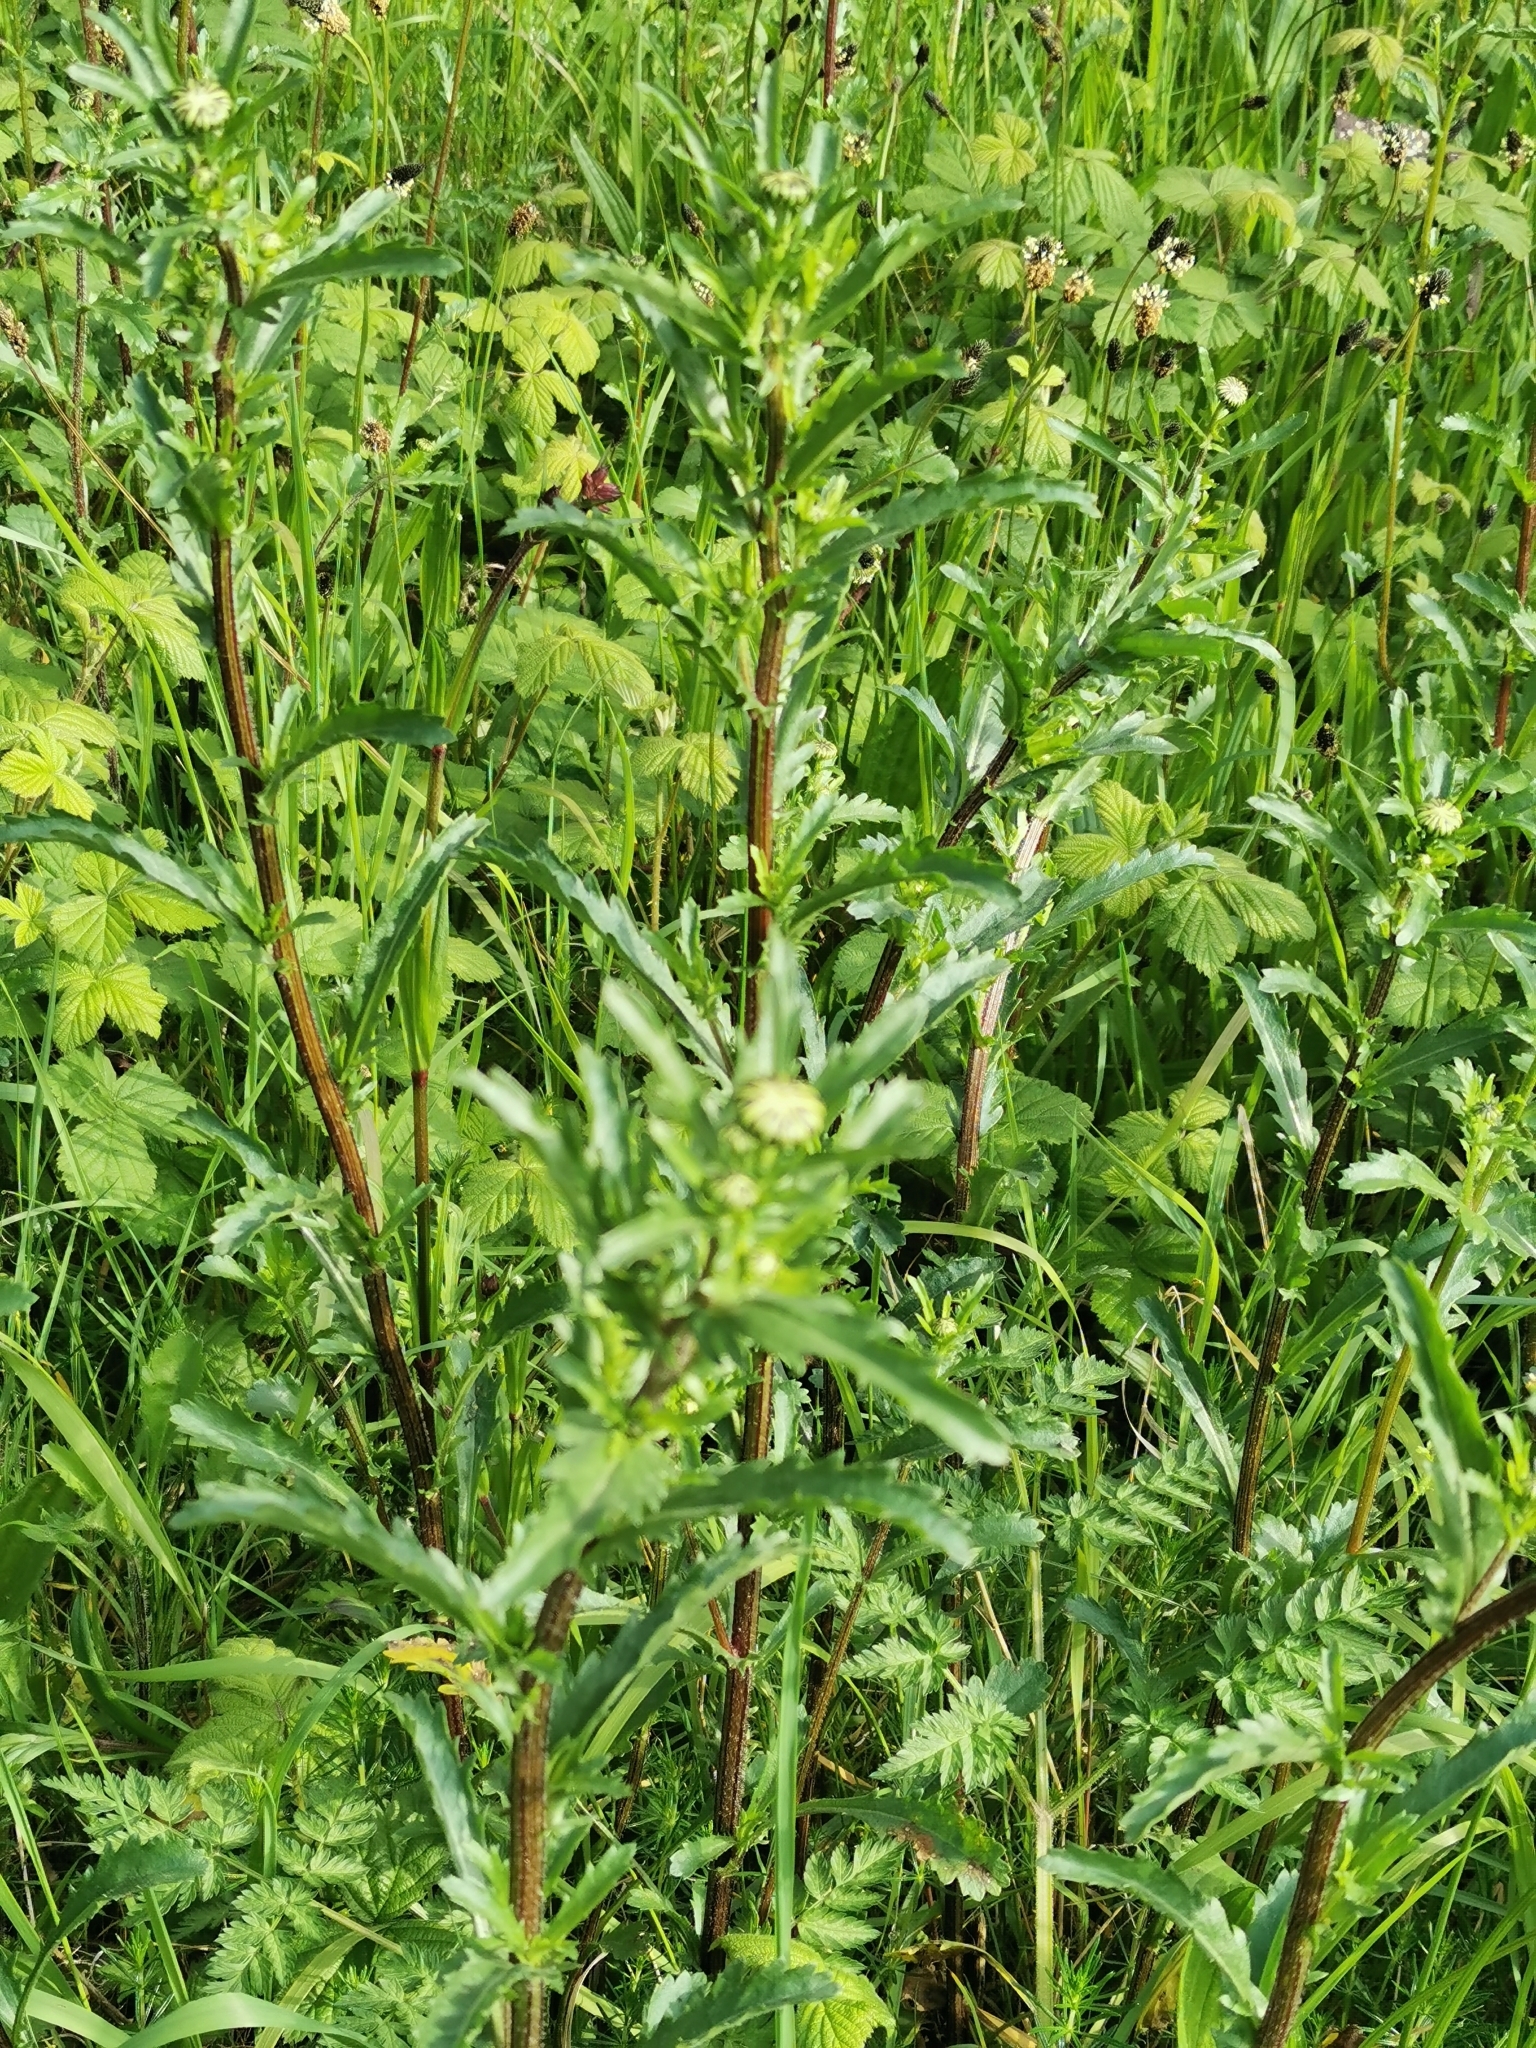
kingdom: Plantae
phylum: Tracheophyta
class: Magnoliopsida
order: Asterales
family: Asteraceae
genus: Leucanthemum
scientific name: Leucanthemum vulgare
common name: Oxeye daisy
